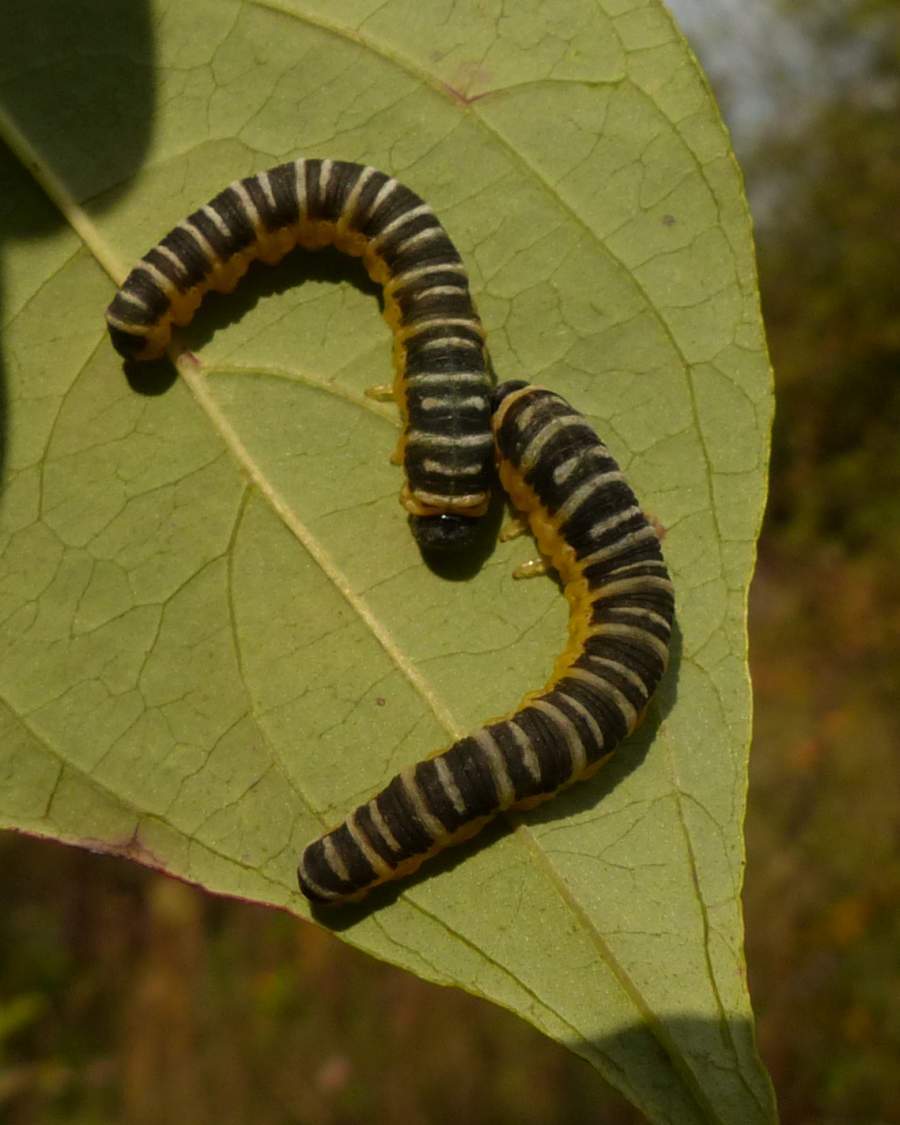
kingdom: Animalia
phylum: Arthropoda
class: Insecta
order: Hymenoptera
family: Tenthredinidae
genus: Macremphytus
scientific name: Macremphytus
